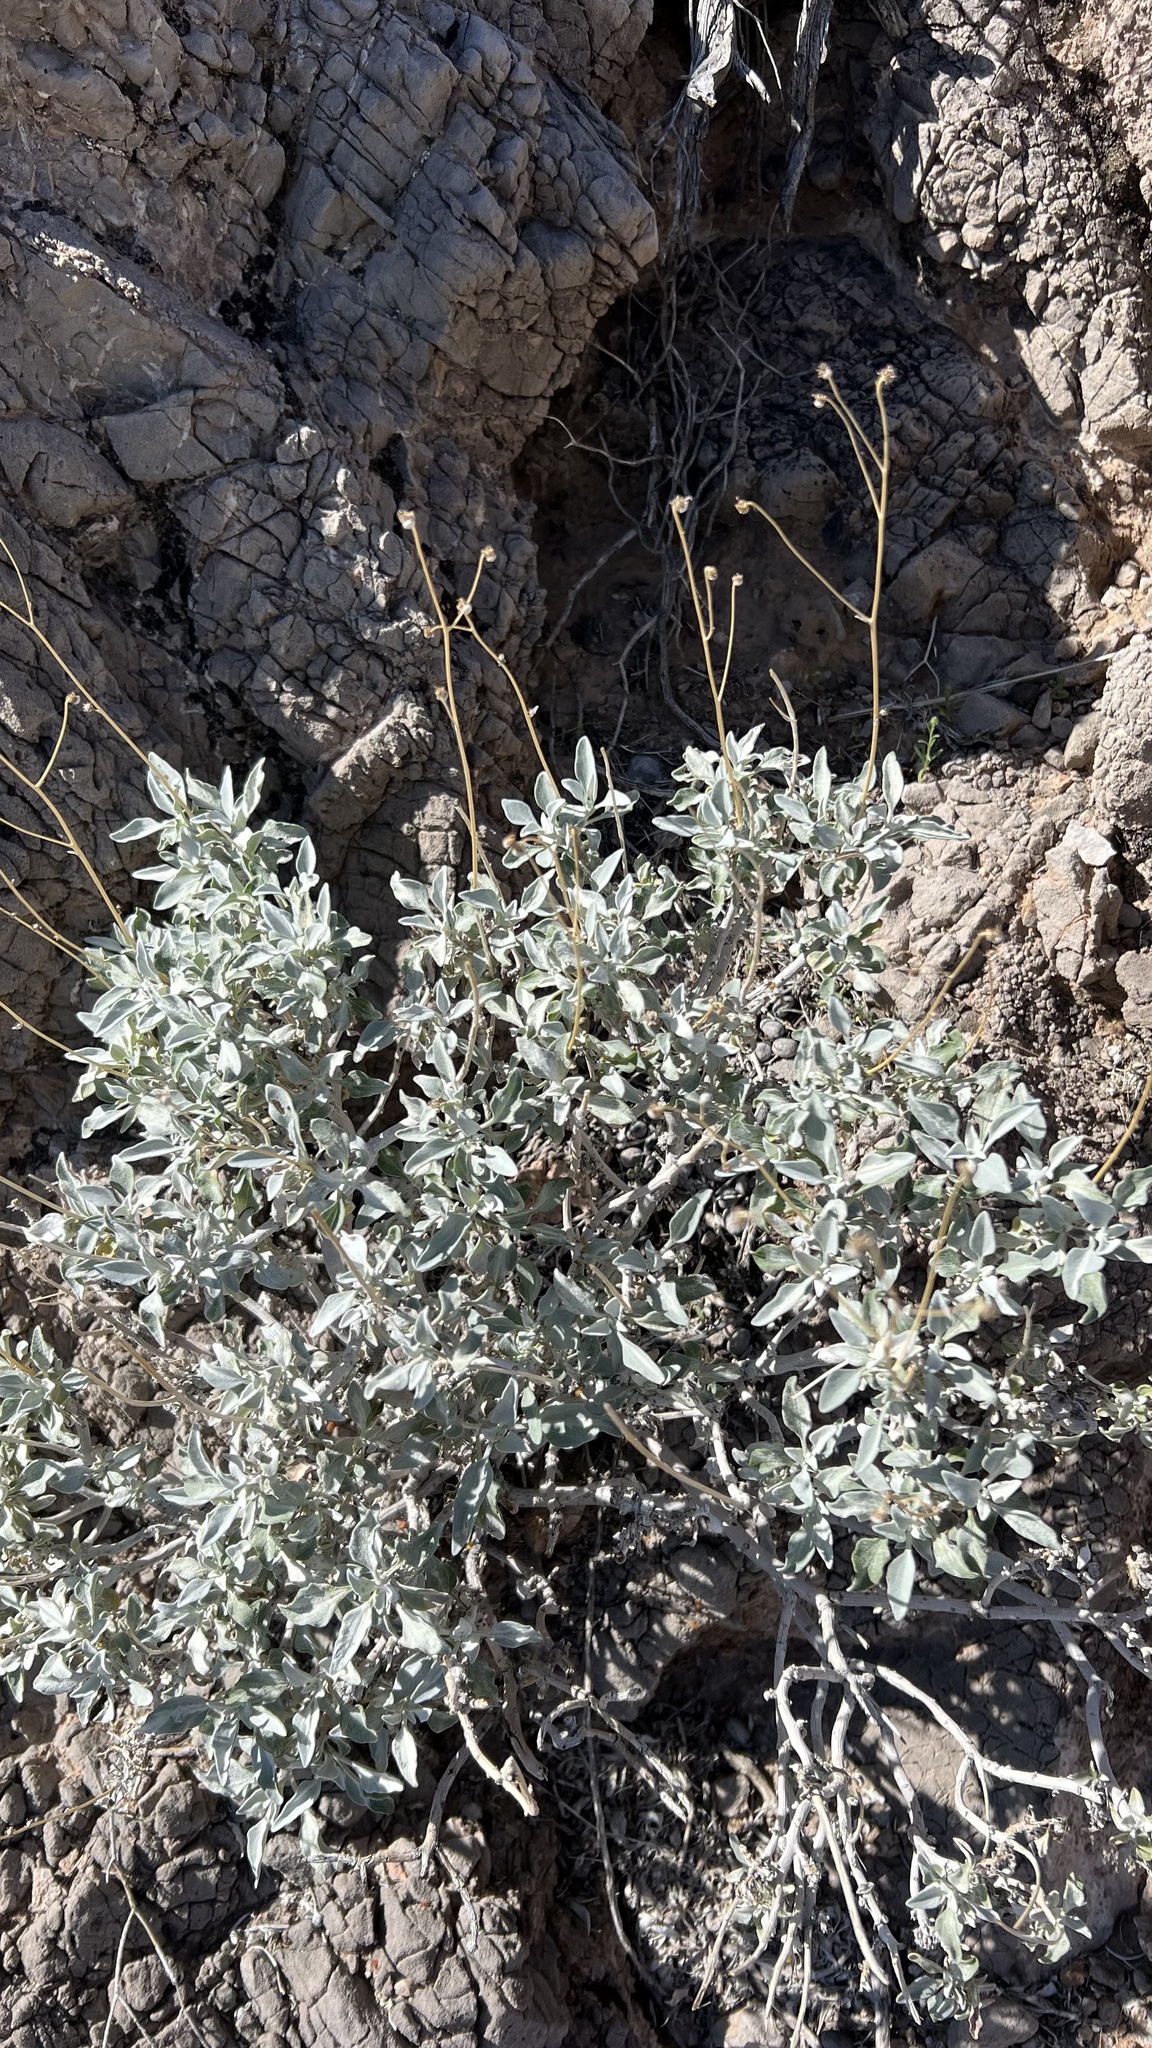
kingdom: Plantae
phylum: Tracheophyta
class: Magnoliopsida
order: Asterales
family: Asteraceae
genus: Encelia
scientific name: Encelia farinosa
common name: Brittlebush
